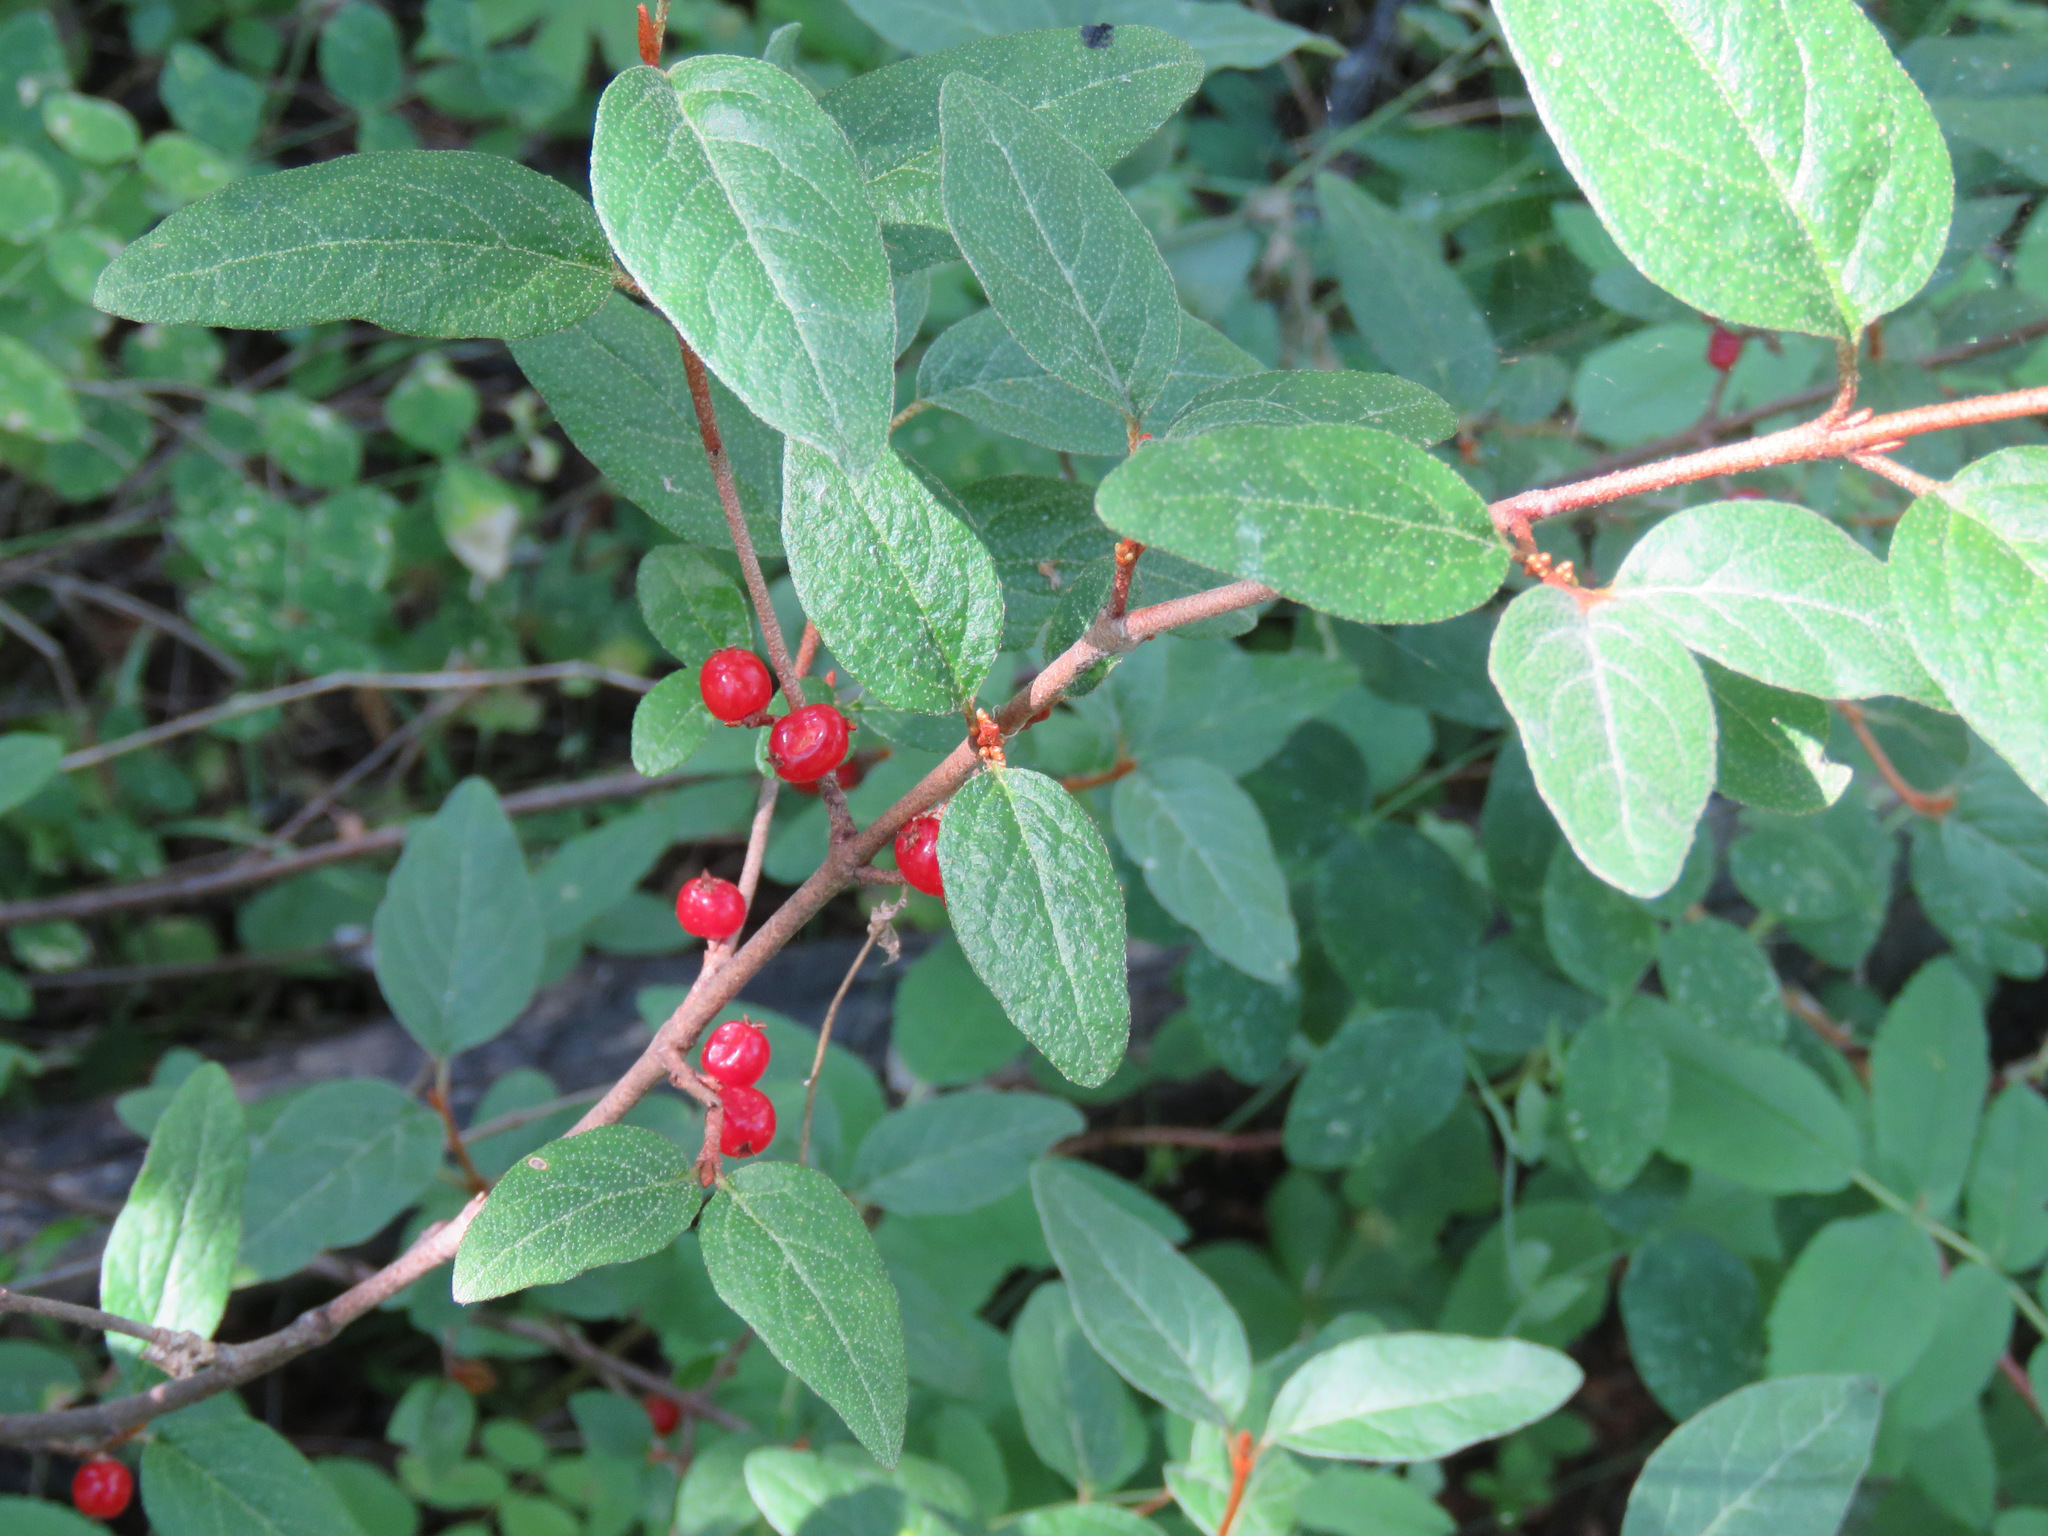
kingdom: Plantae
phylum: Tracheophyta
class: Magnoliopsida
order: Rosales
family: Elaeagnaceae
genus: Shepherdia
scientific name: Shepherdia canadensis
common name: Soapberry
